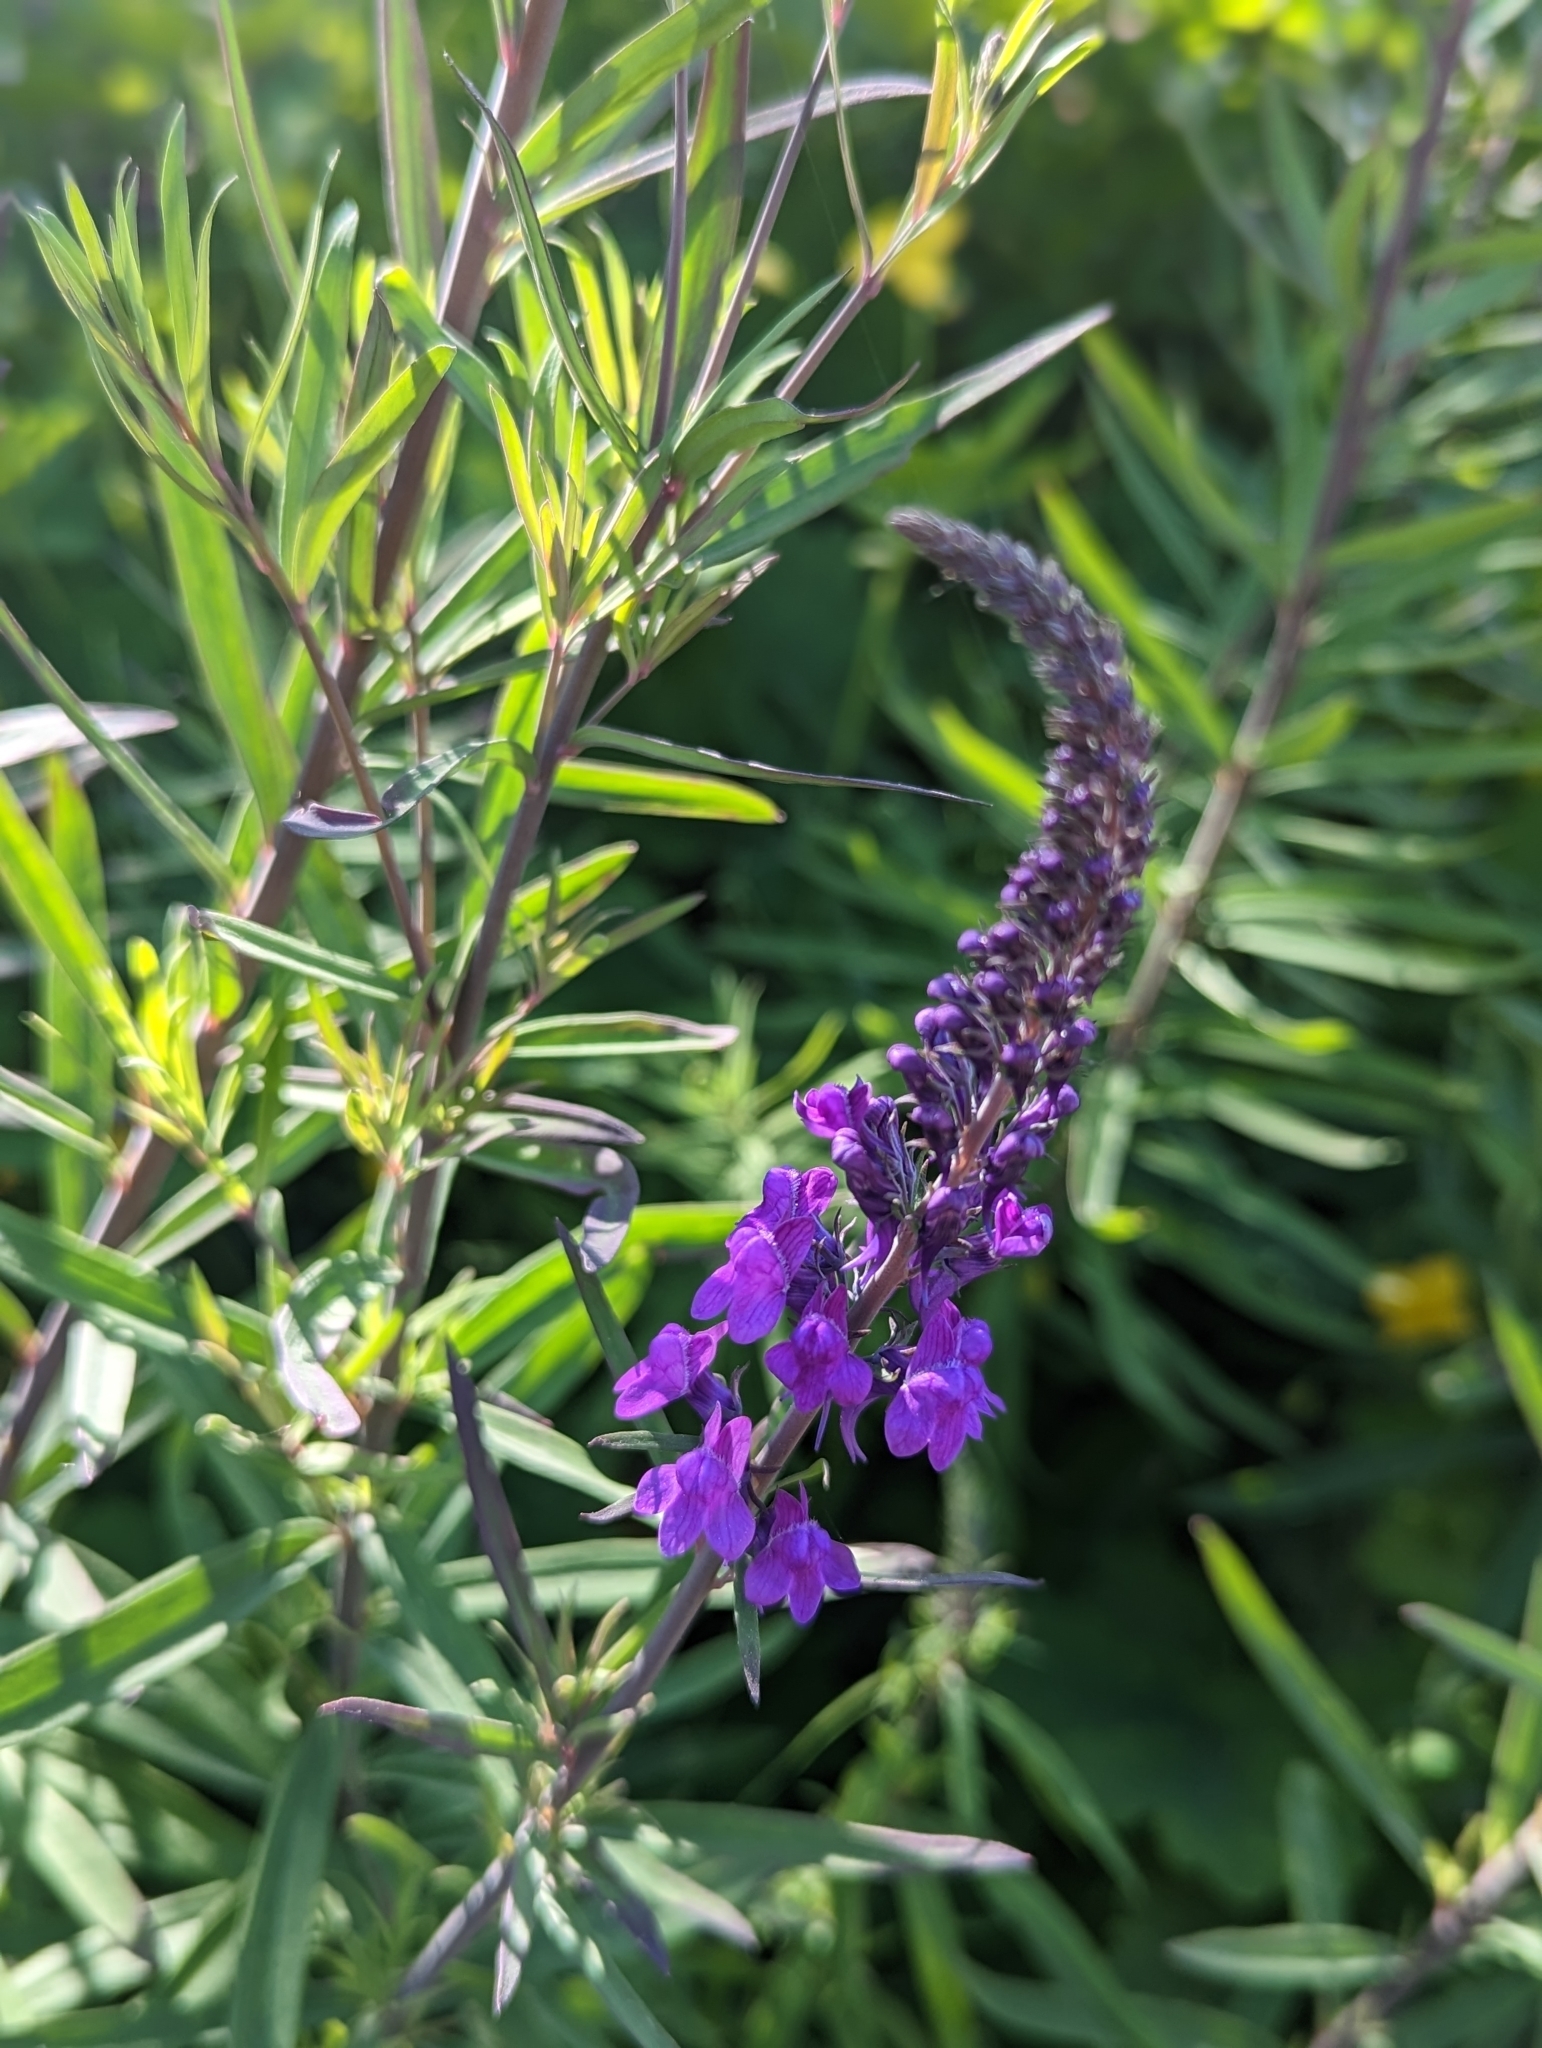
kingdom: Plantae
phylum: Tracheophyta
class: Magnoliopsida
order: Lamiales
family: Plantaginaceae
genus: Linaria
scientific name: Linaria purpurea
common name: Purple toadflax
